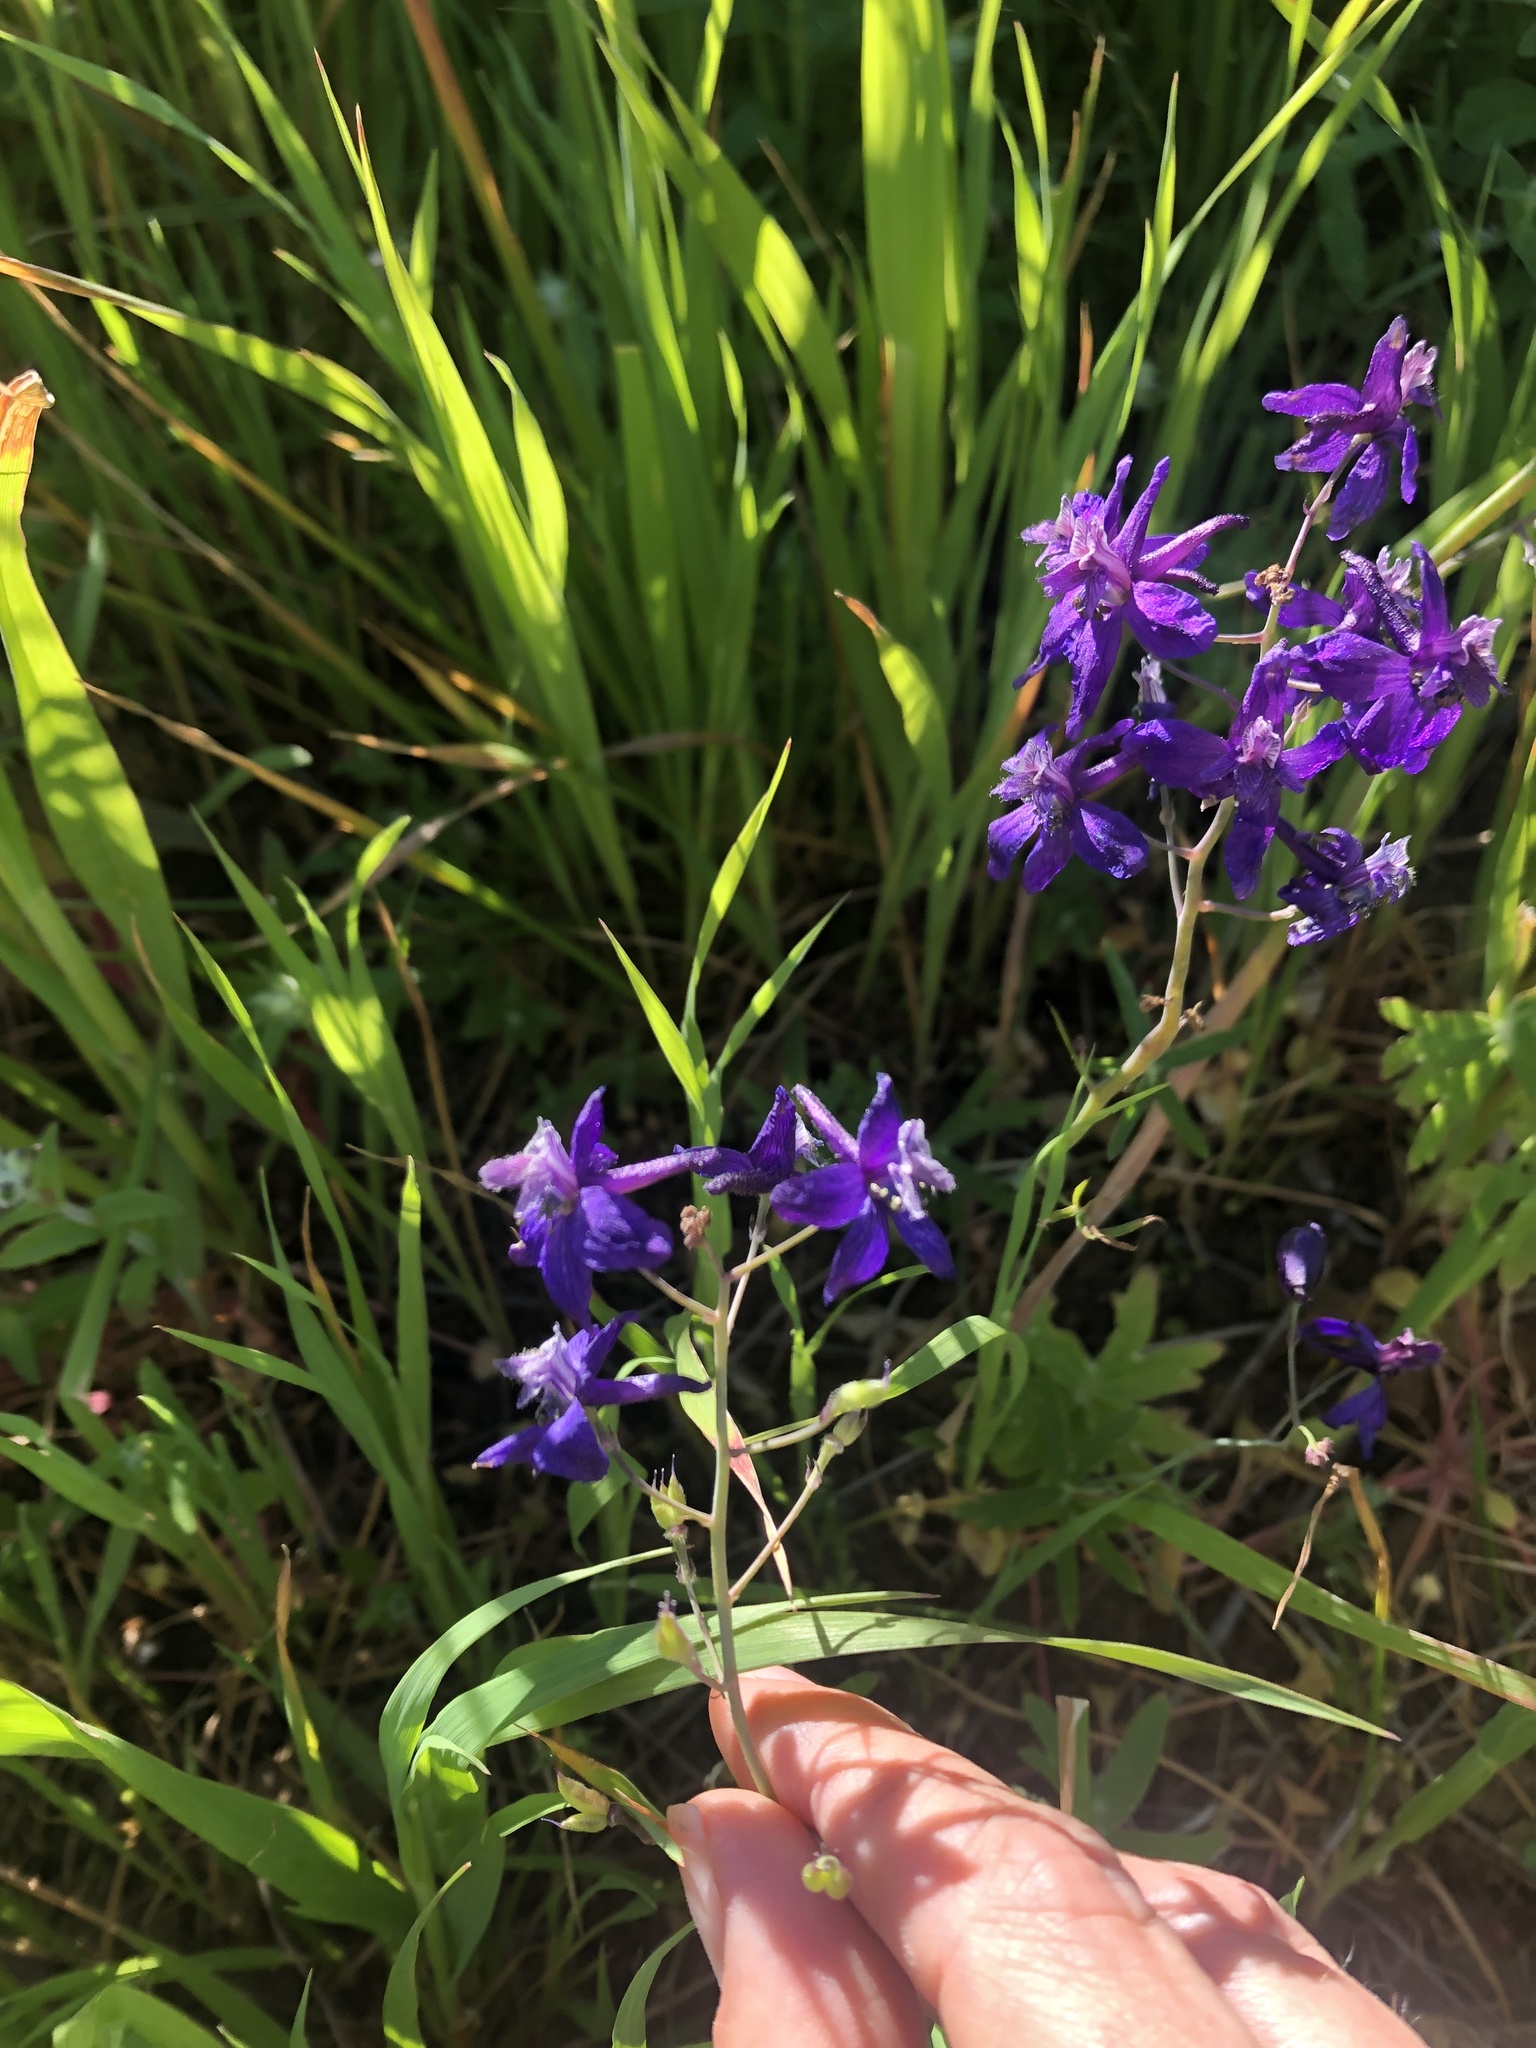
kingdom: Plantae
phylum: Tracheophyta
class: Magnoliopsida
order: Ranunculales
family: Ranunculaceae
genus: Delphinium
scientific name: Delphinium patens
